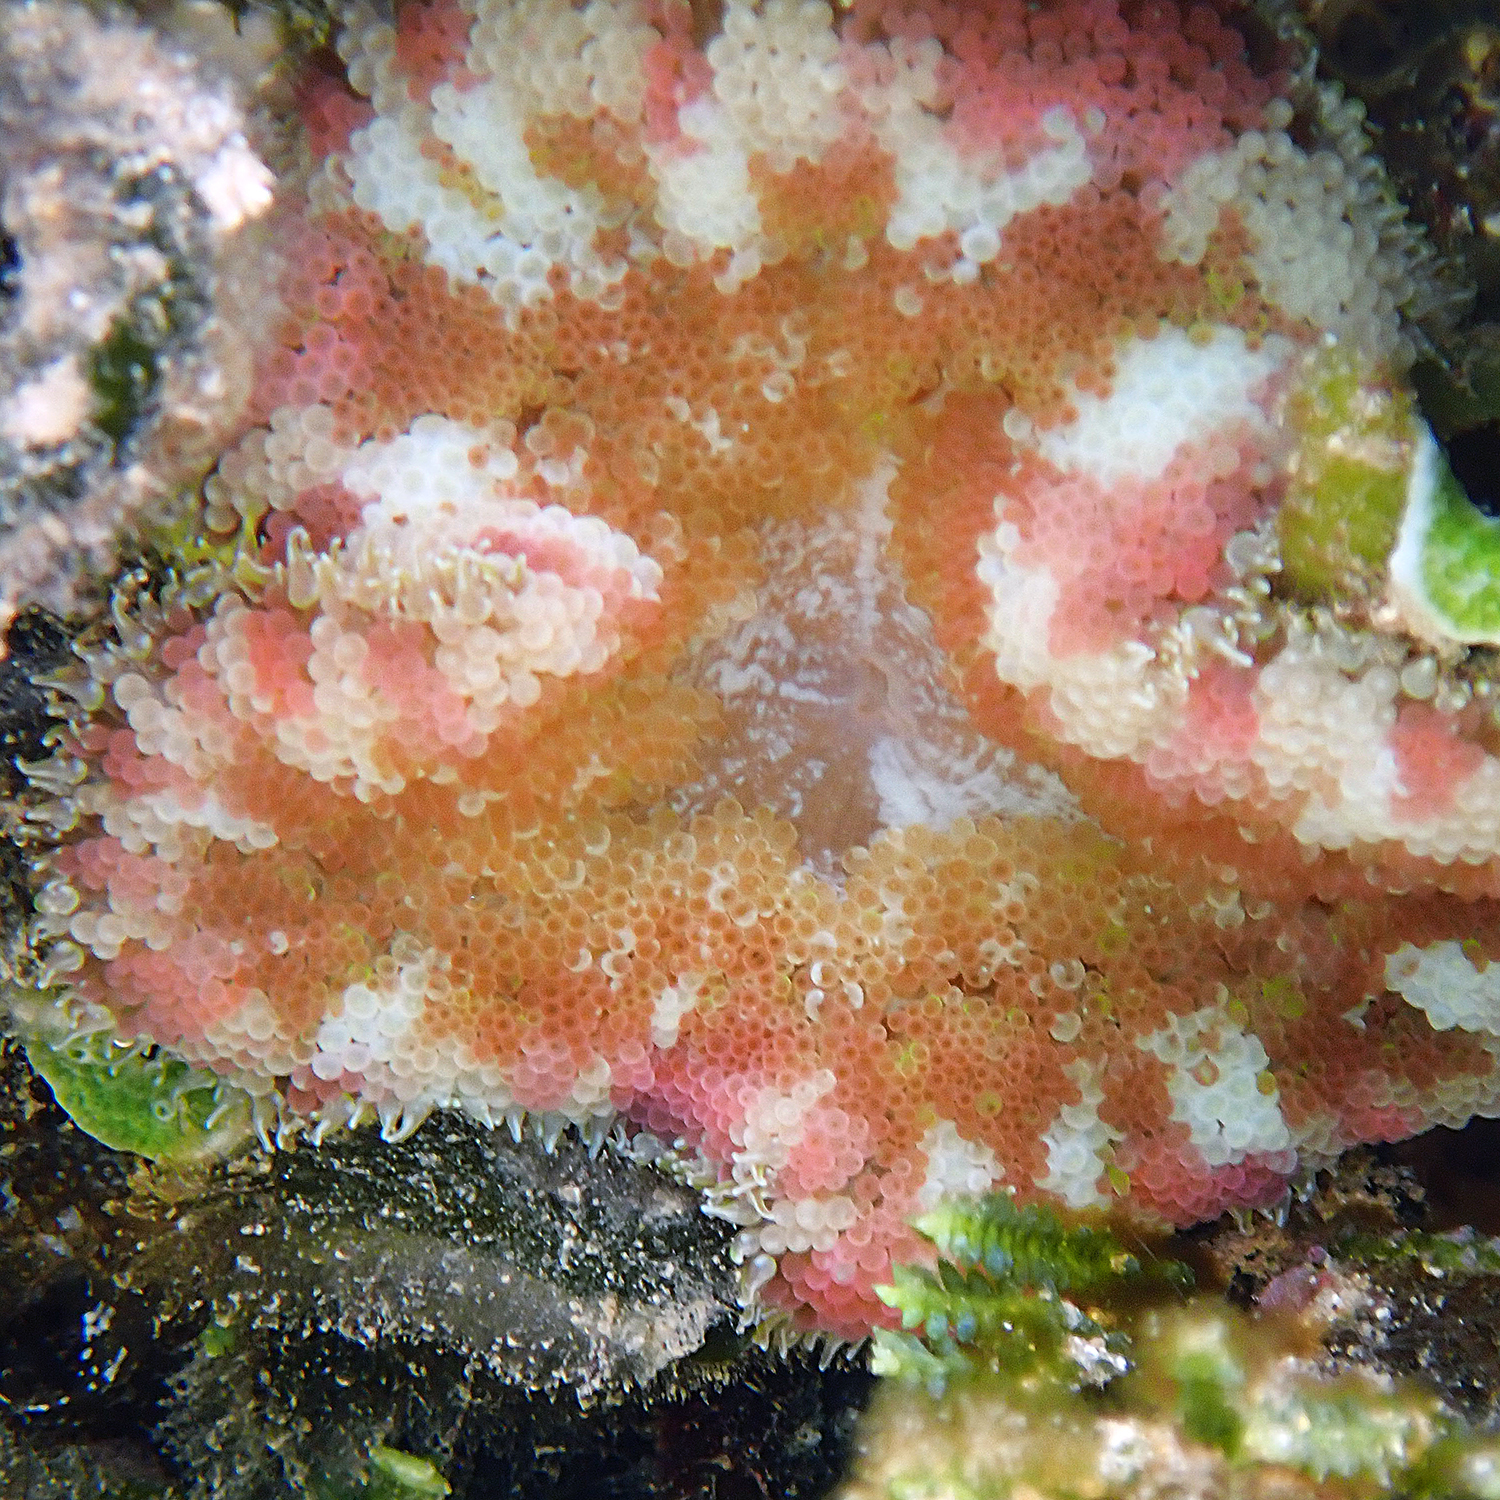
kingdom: Animalia
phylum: Cnidaria
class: Anthozoa
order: Actiniaria
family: Stichodactylidae
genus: Stichodactyla
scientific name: Stichodactyla tapetum
